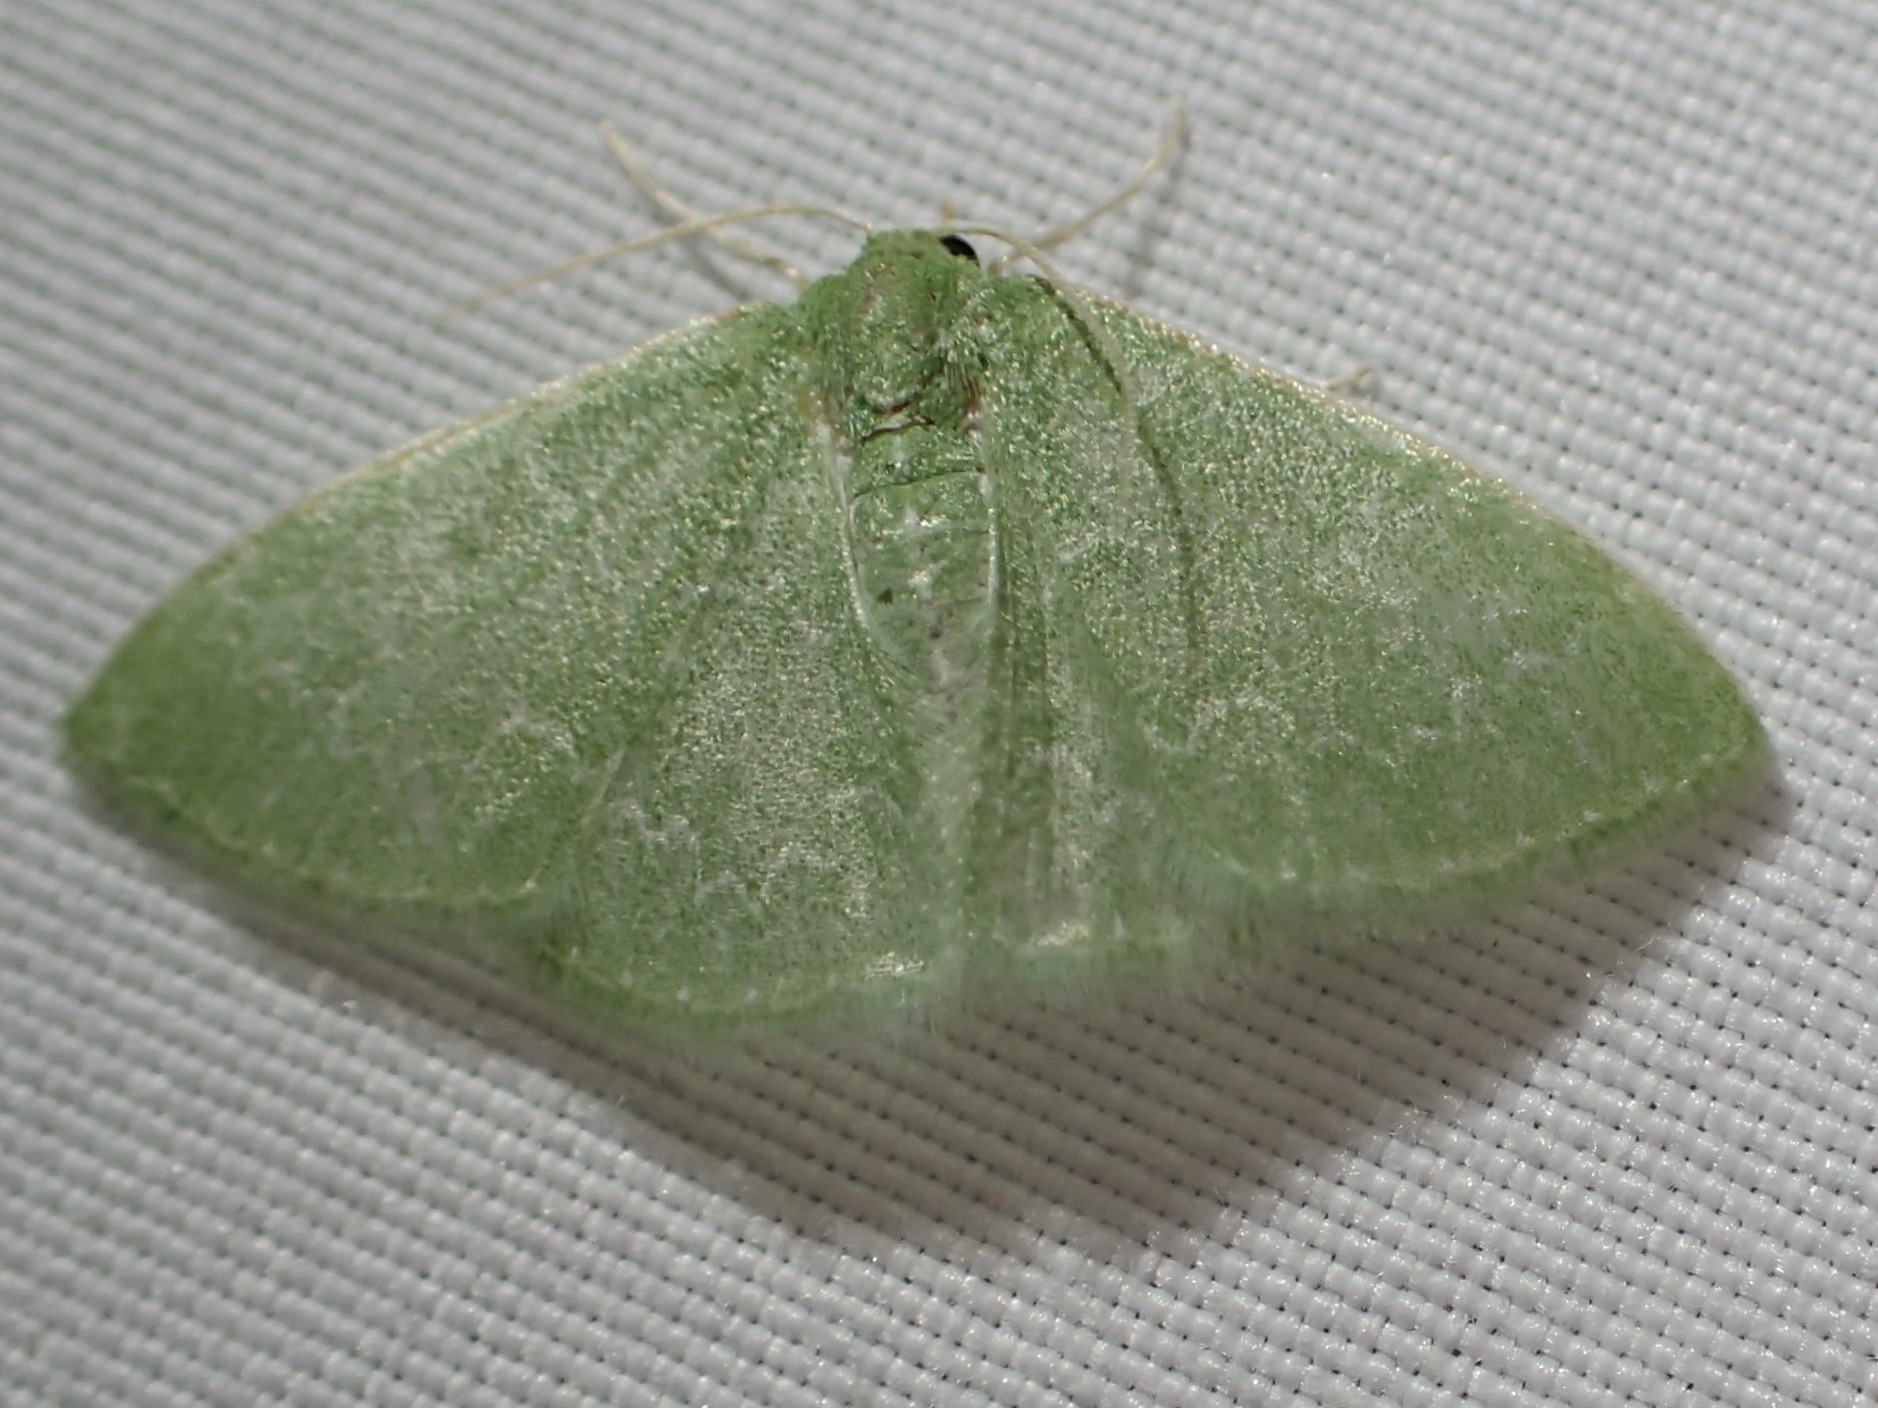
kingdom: Animalia
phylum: Arthropoda
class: Insecta
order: Lepidoptera
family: Geometridae
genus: Synchlora
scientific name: Synchlora frondaria
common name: Southern emerald
